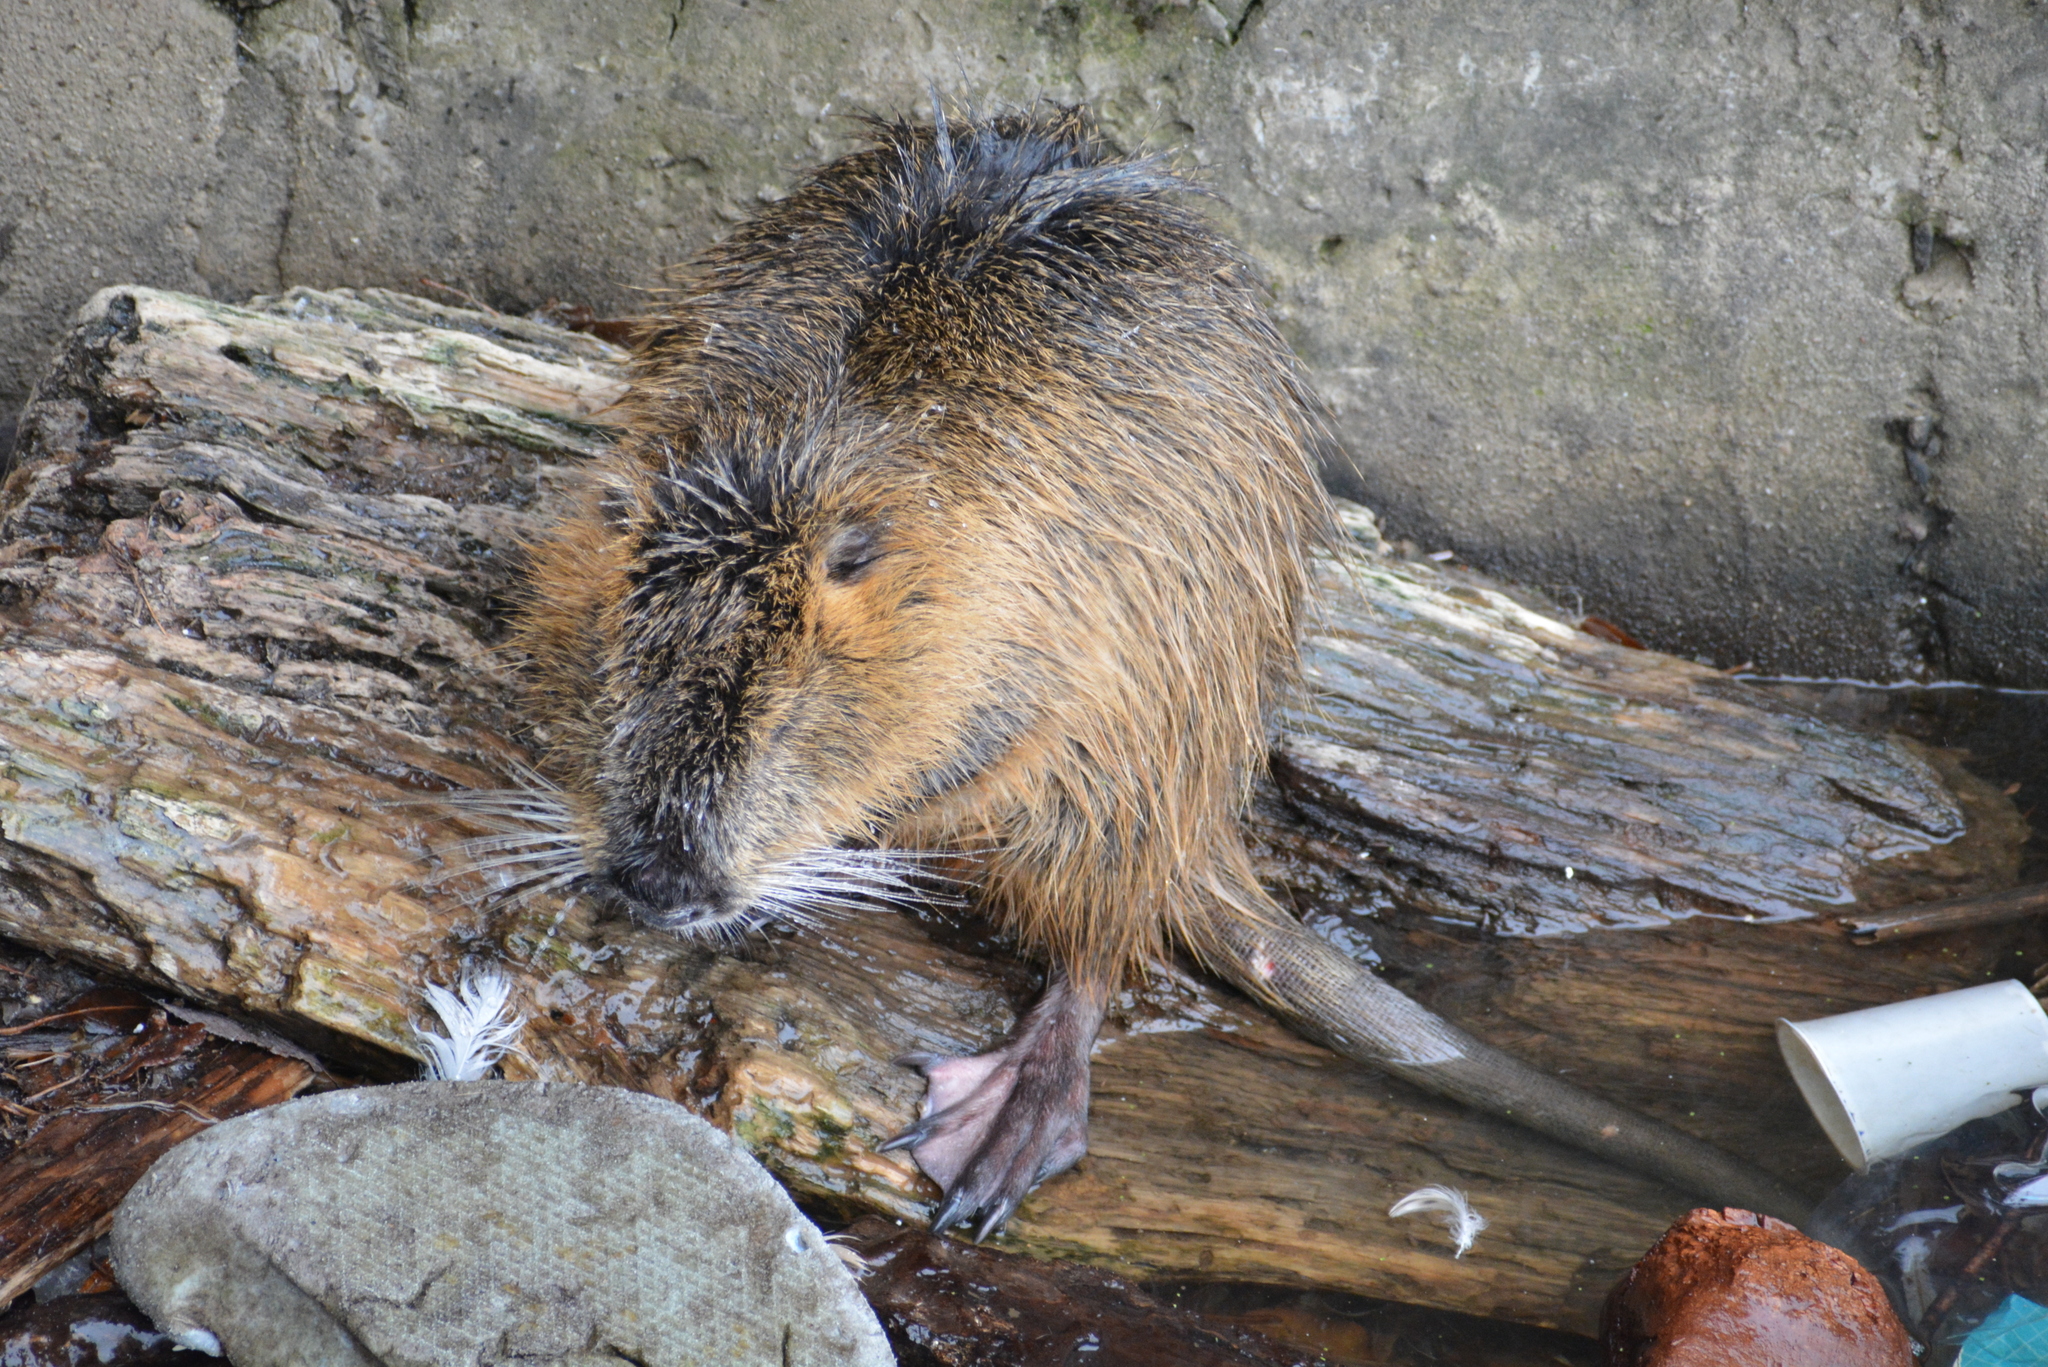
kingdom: Animalia
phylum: Chordata
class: Mammalia
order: Rodentia
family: Myocastoridae
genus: Myocastor
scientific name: Myocastor coypus
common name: Coypu
